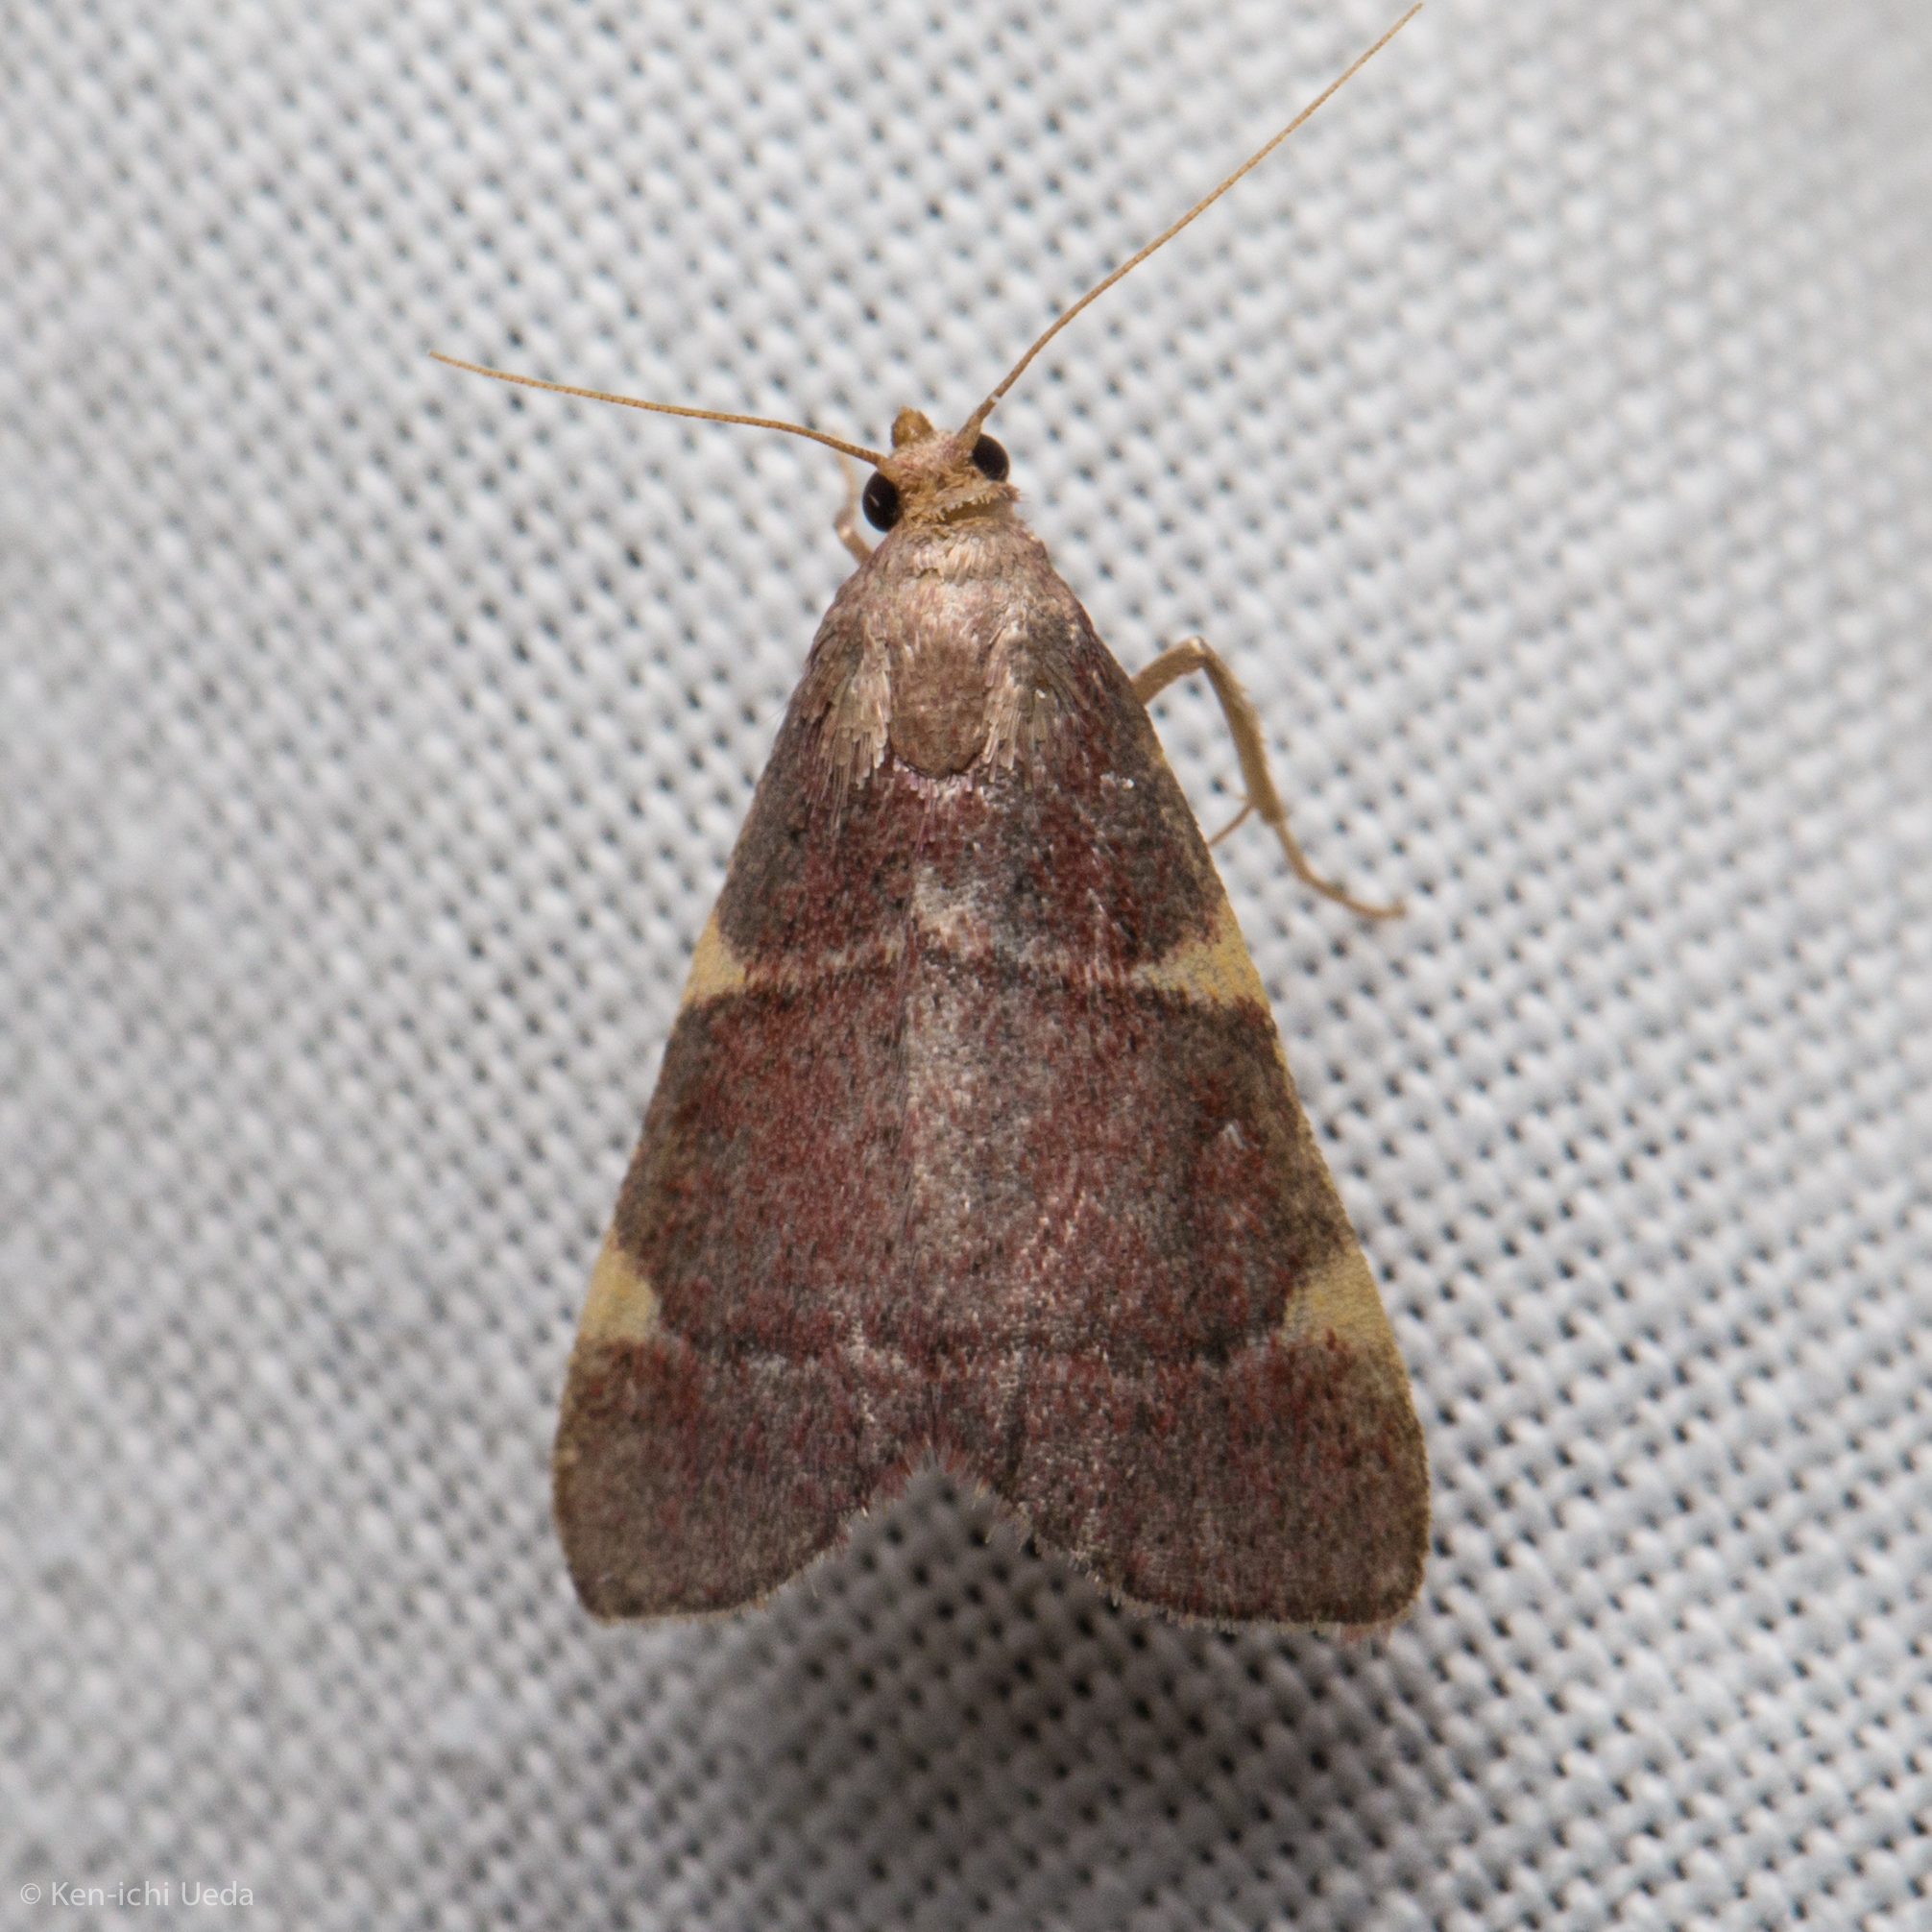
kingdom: Animalia
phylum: Arthropoda
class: Insecta
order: Lepidoptera
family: Pyralidae
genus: Hypsopygia
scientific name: Hypsopygia olinalis
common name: Yellow-fringed dolichomia moth
